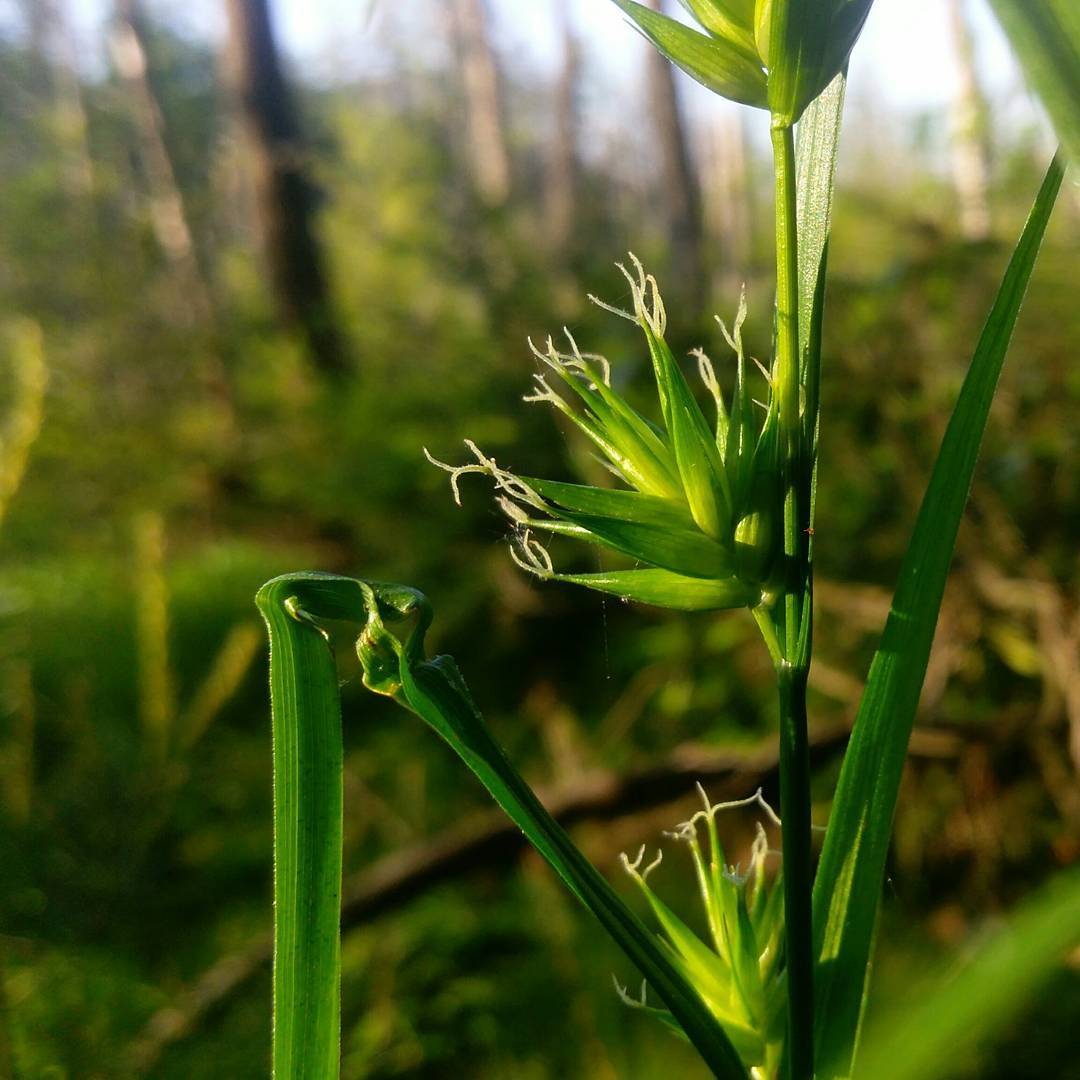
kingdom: Plantae
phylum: Tracheophyta
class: Liliopsida
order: Poales
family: Cyperaceae
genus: Carex
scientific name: Carex folliculata
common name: Northern long sedge
